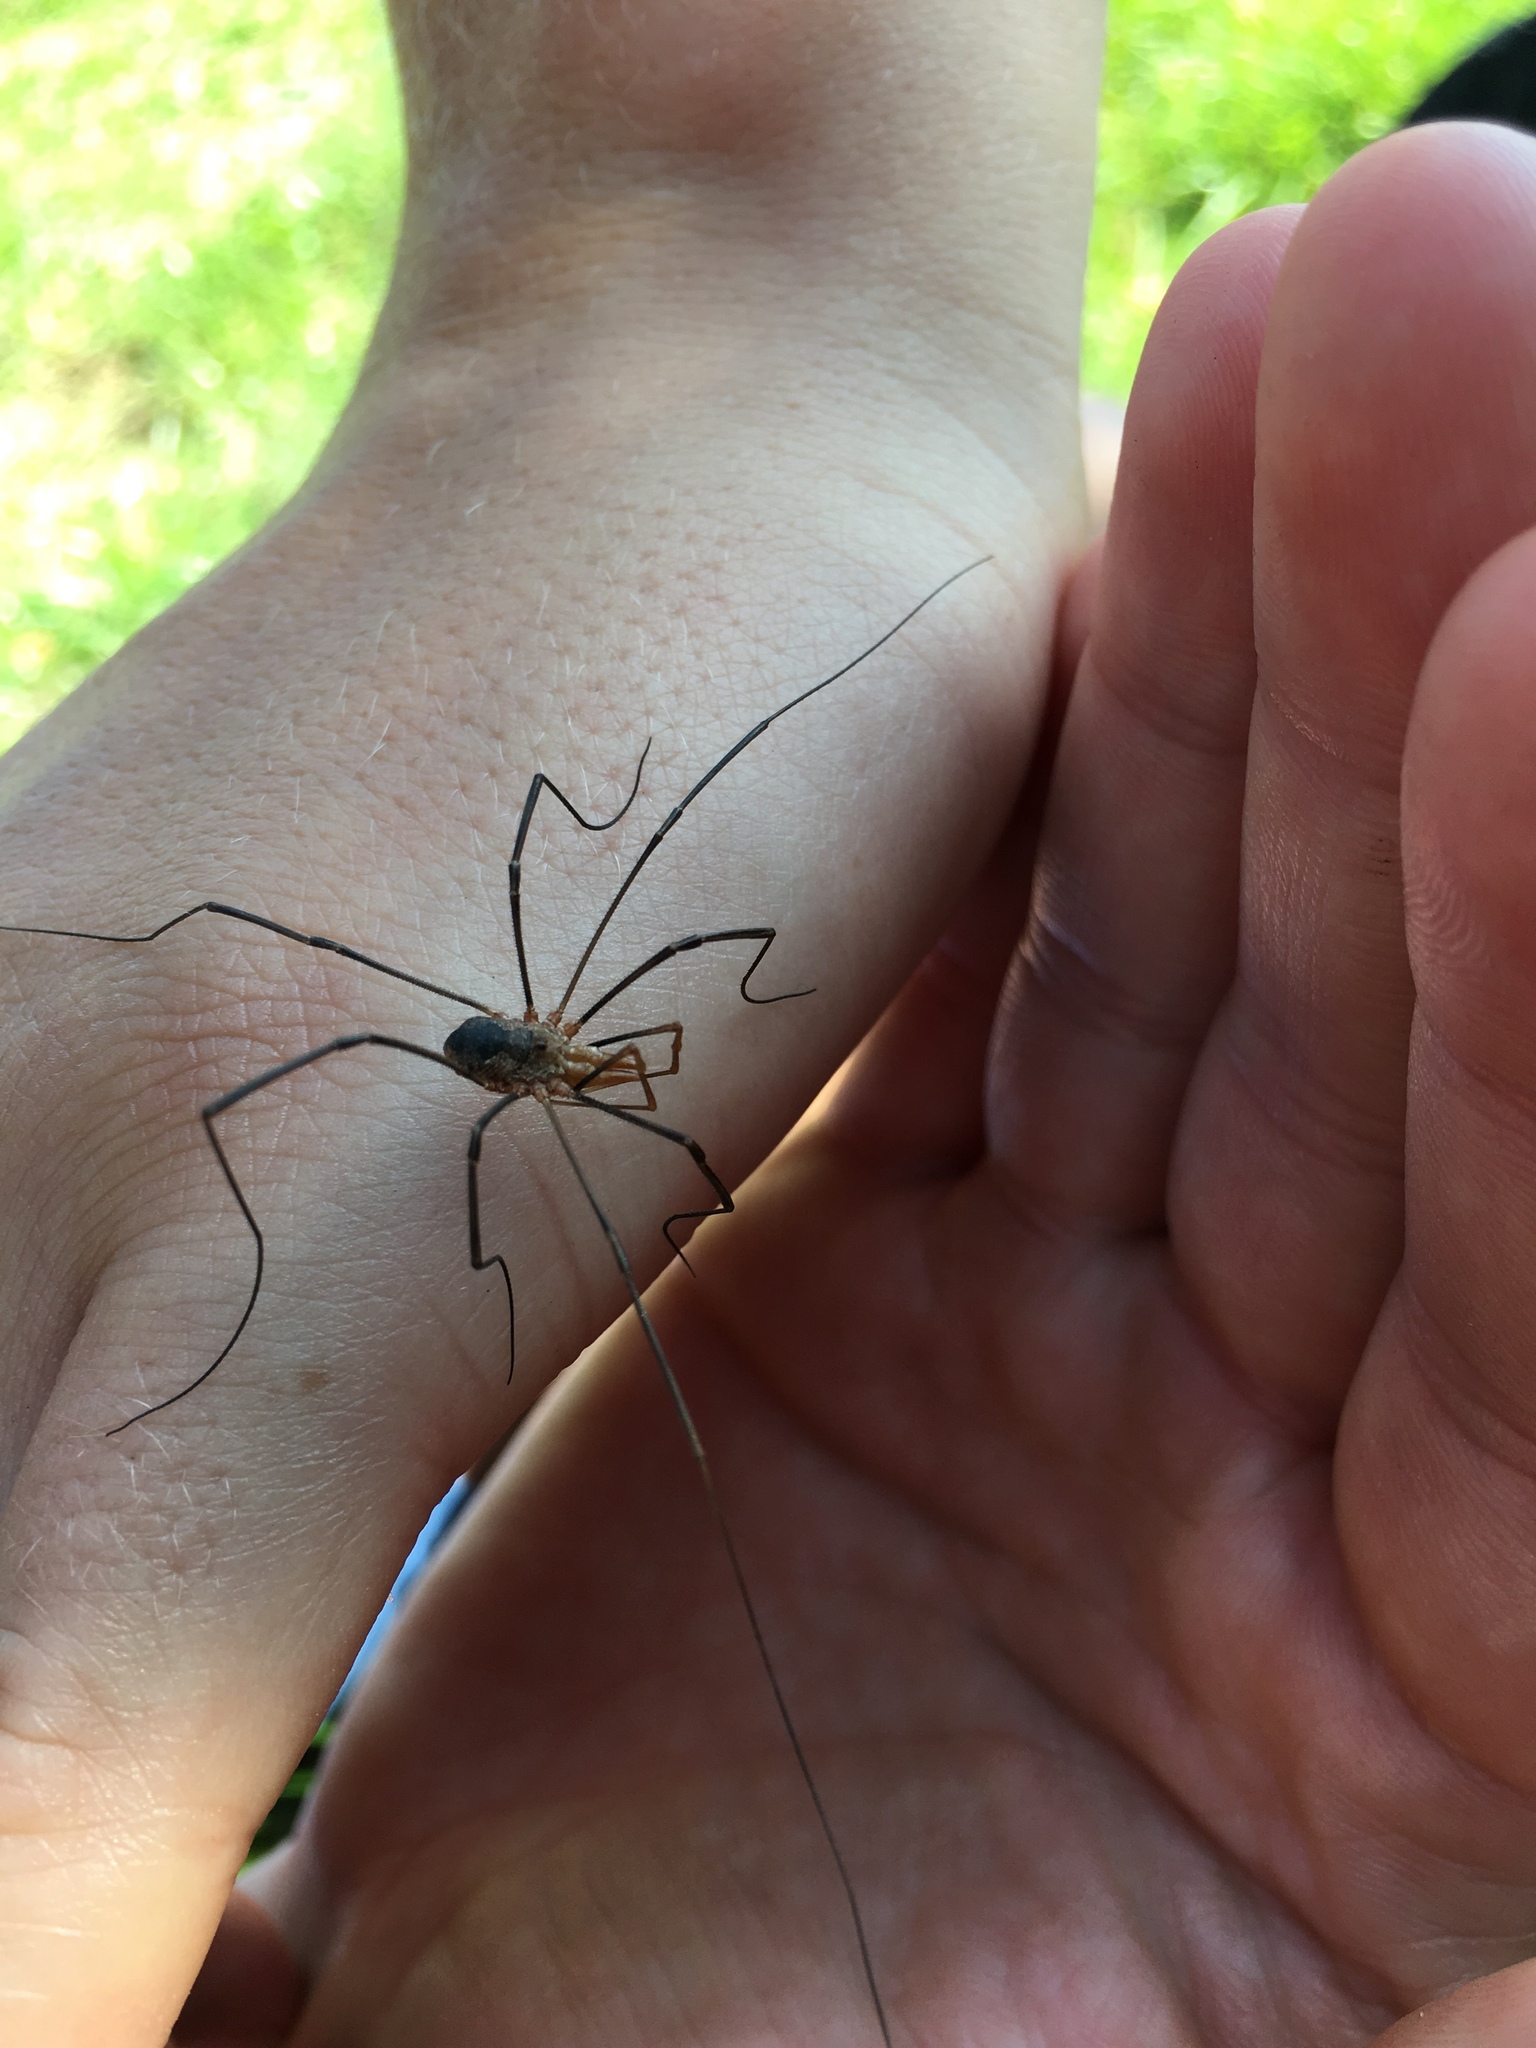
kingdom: Animalia
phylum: Arthropoda
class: Arachnida
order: Opiliones
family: Phalangiidae
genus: Phalangium
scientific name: Phalangium opilio
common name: Daddy longleg
